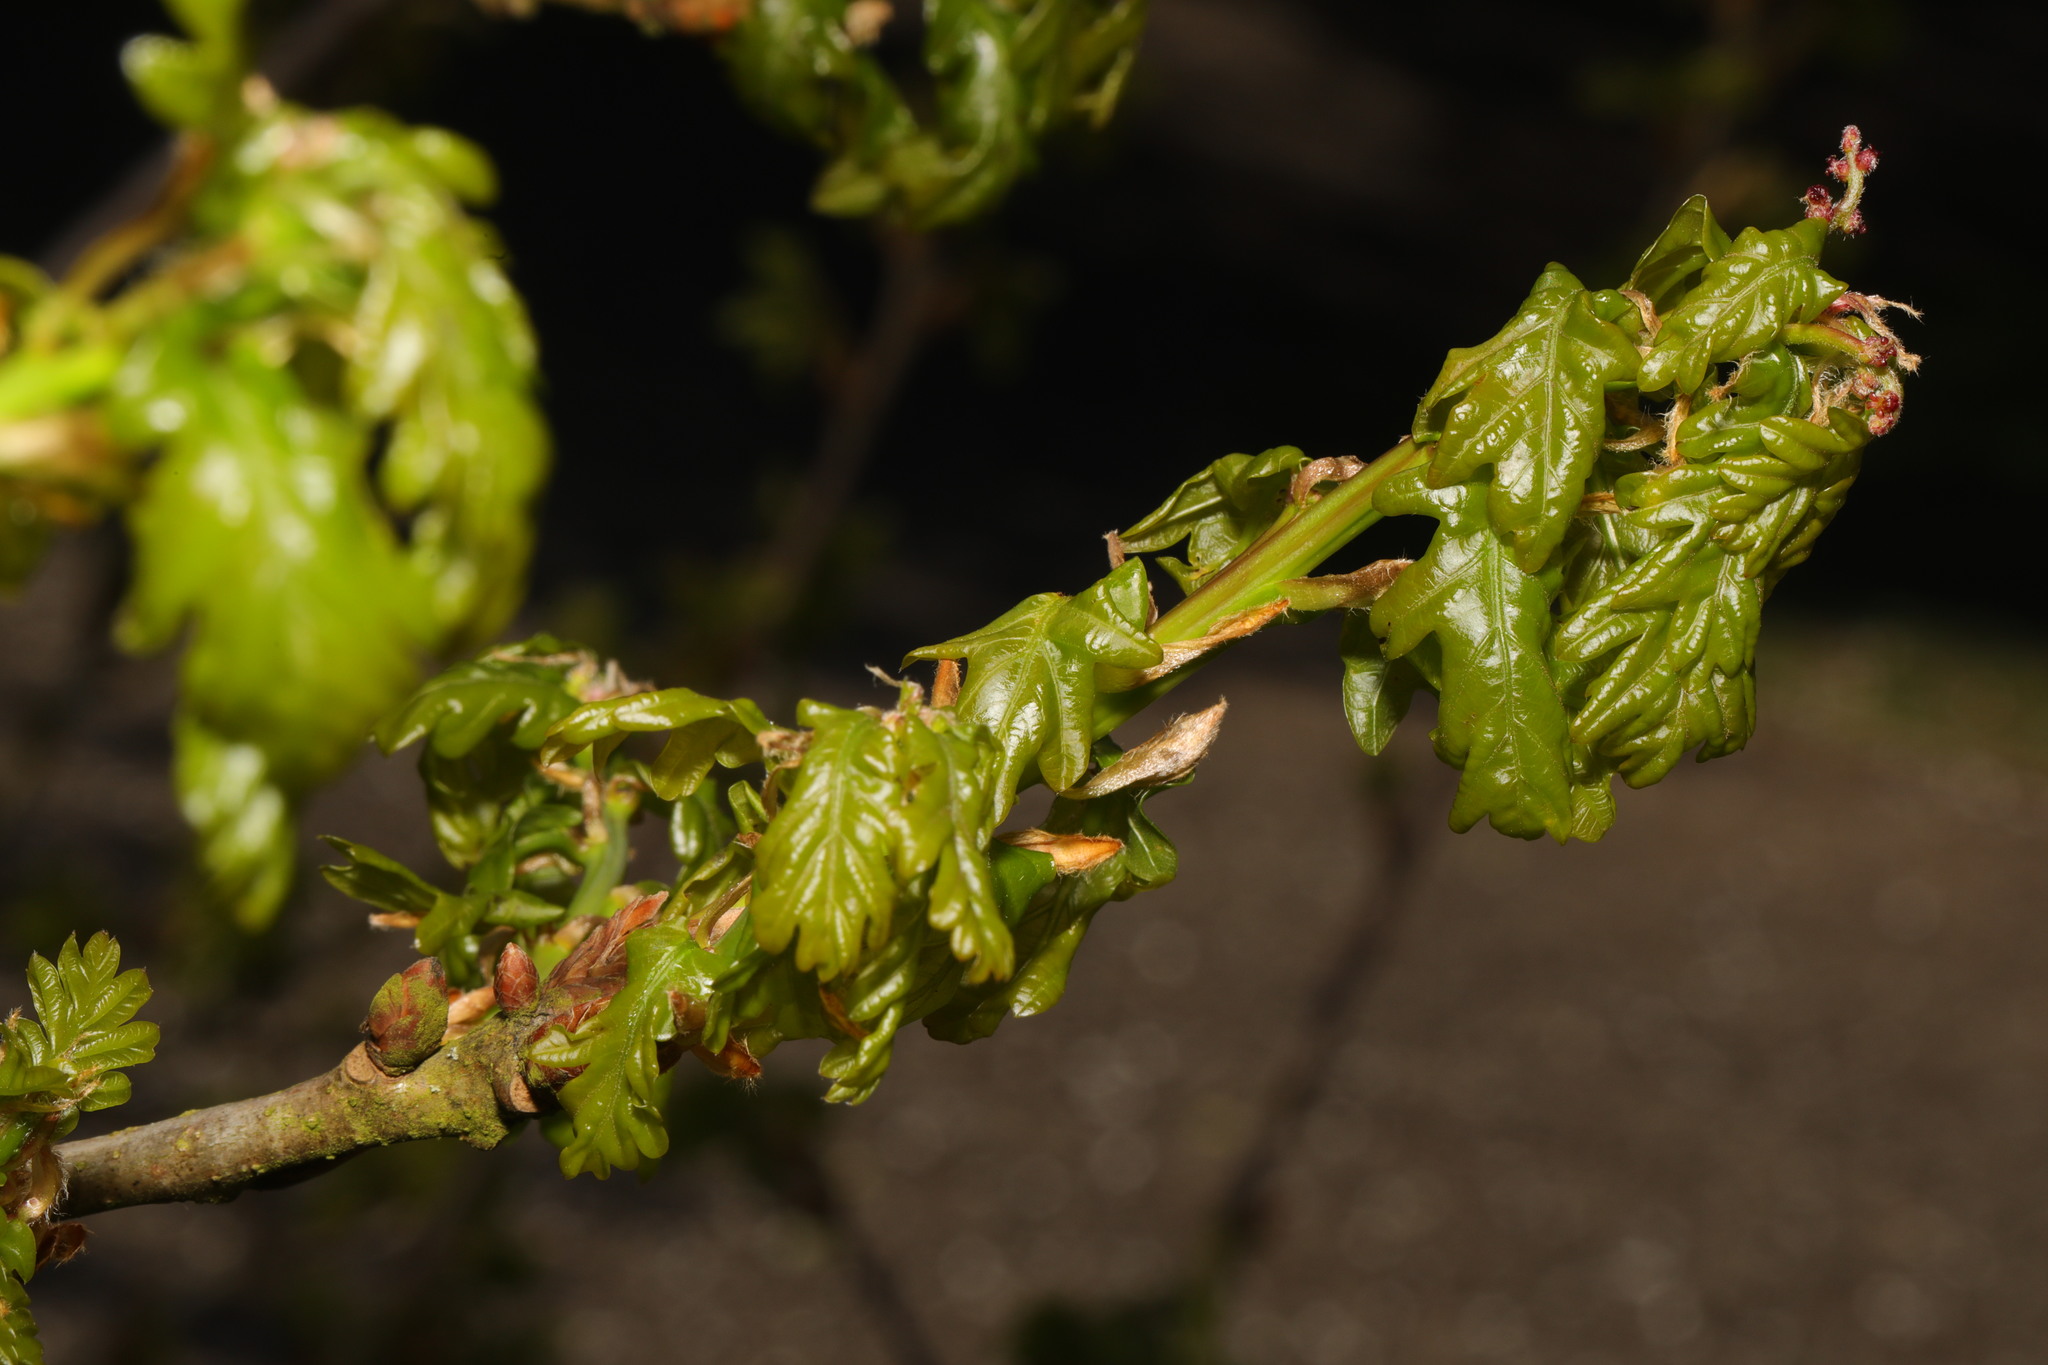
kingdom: Plantae
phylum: Tracheophyta
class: Magnoliopsida
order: Fagales
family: Fagaceae
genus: Quercus
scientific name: Quercus robur
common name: Pedunculate oak
